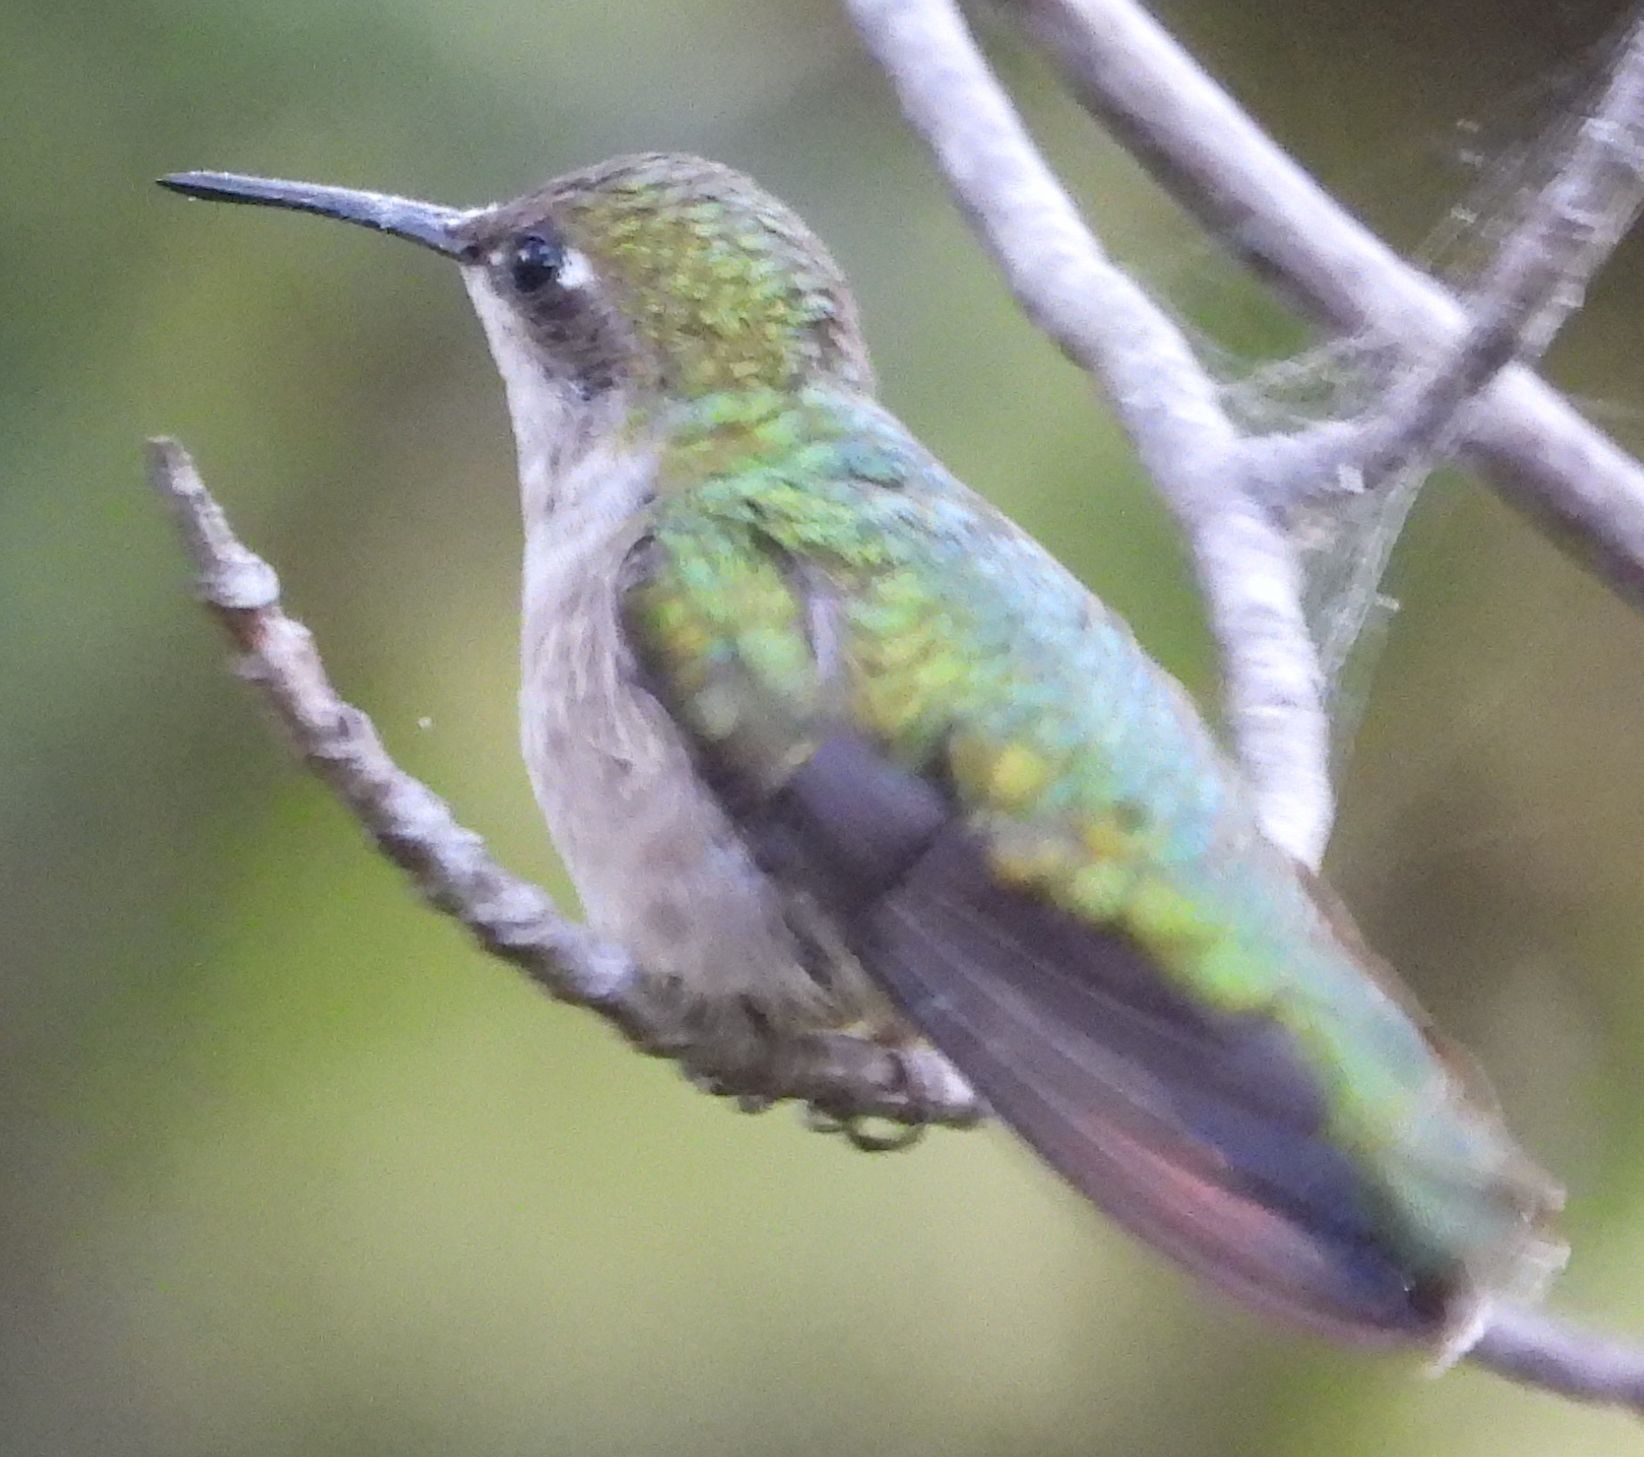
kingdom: Animalia
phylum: Chordata
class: Aves
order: Apodiformes
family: Trochilidae
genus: Archilochus
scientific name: Archilochus colubris
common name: Ruby-throated hummingbird
